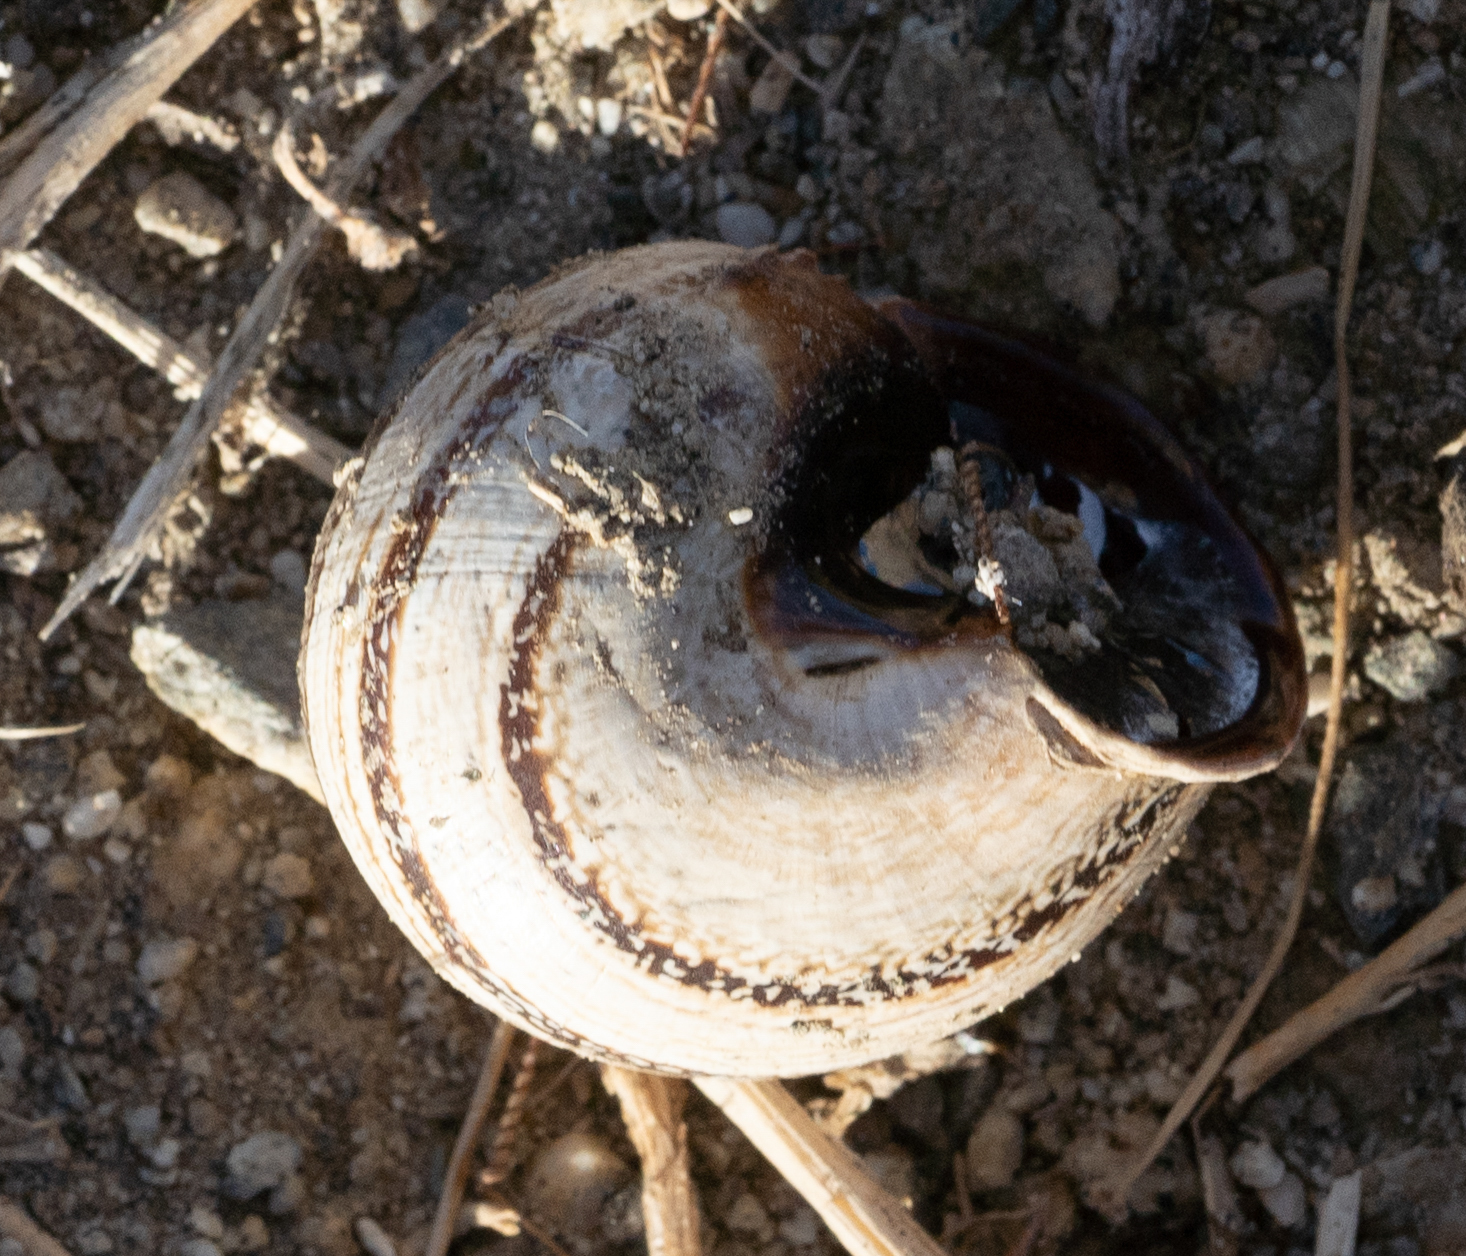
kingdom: Animalia
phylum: Mollusca
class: Gastropoda
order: Stylommatophora
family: Helicidae
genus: Otala
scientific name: Otala lactea
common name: Milk snail
